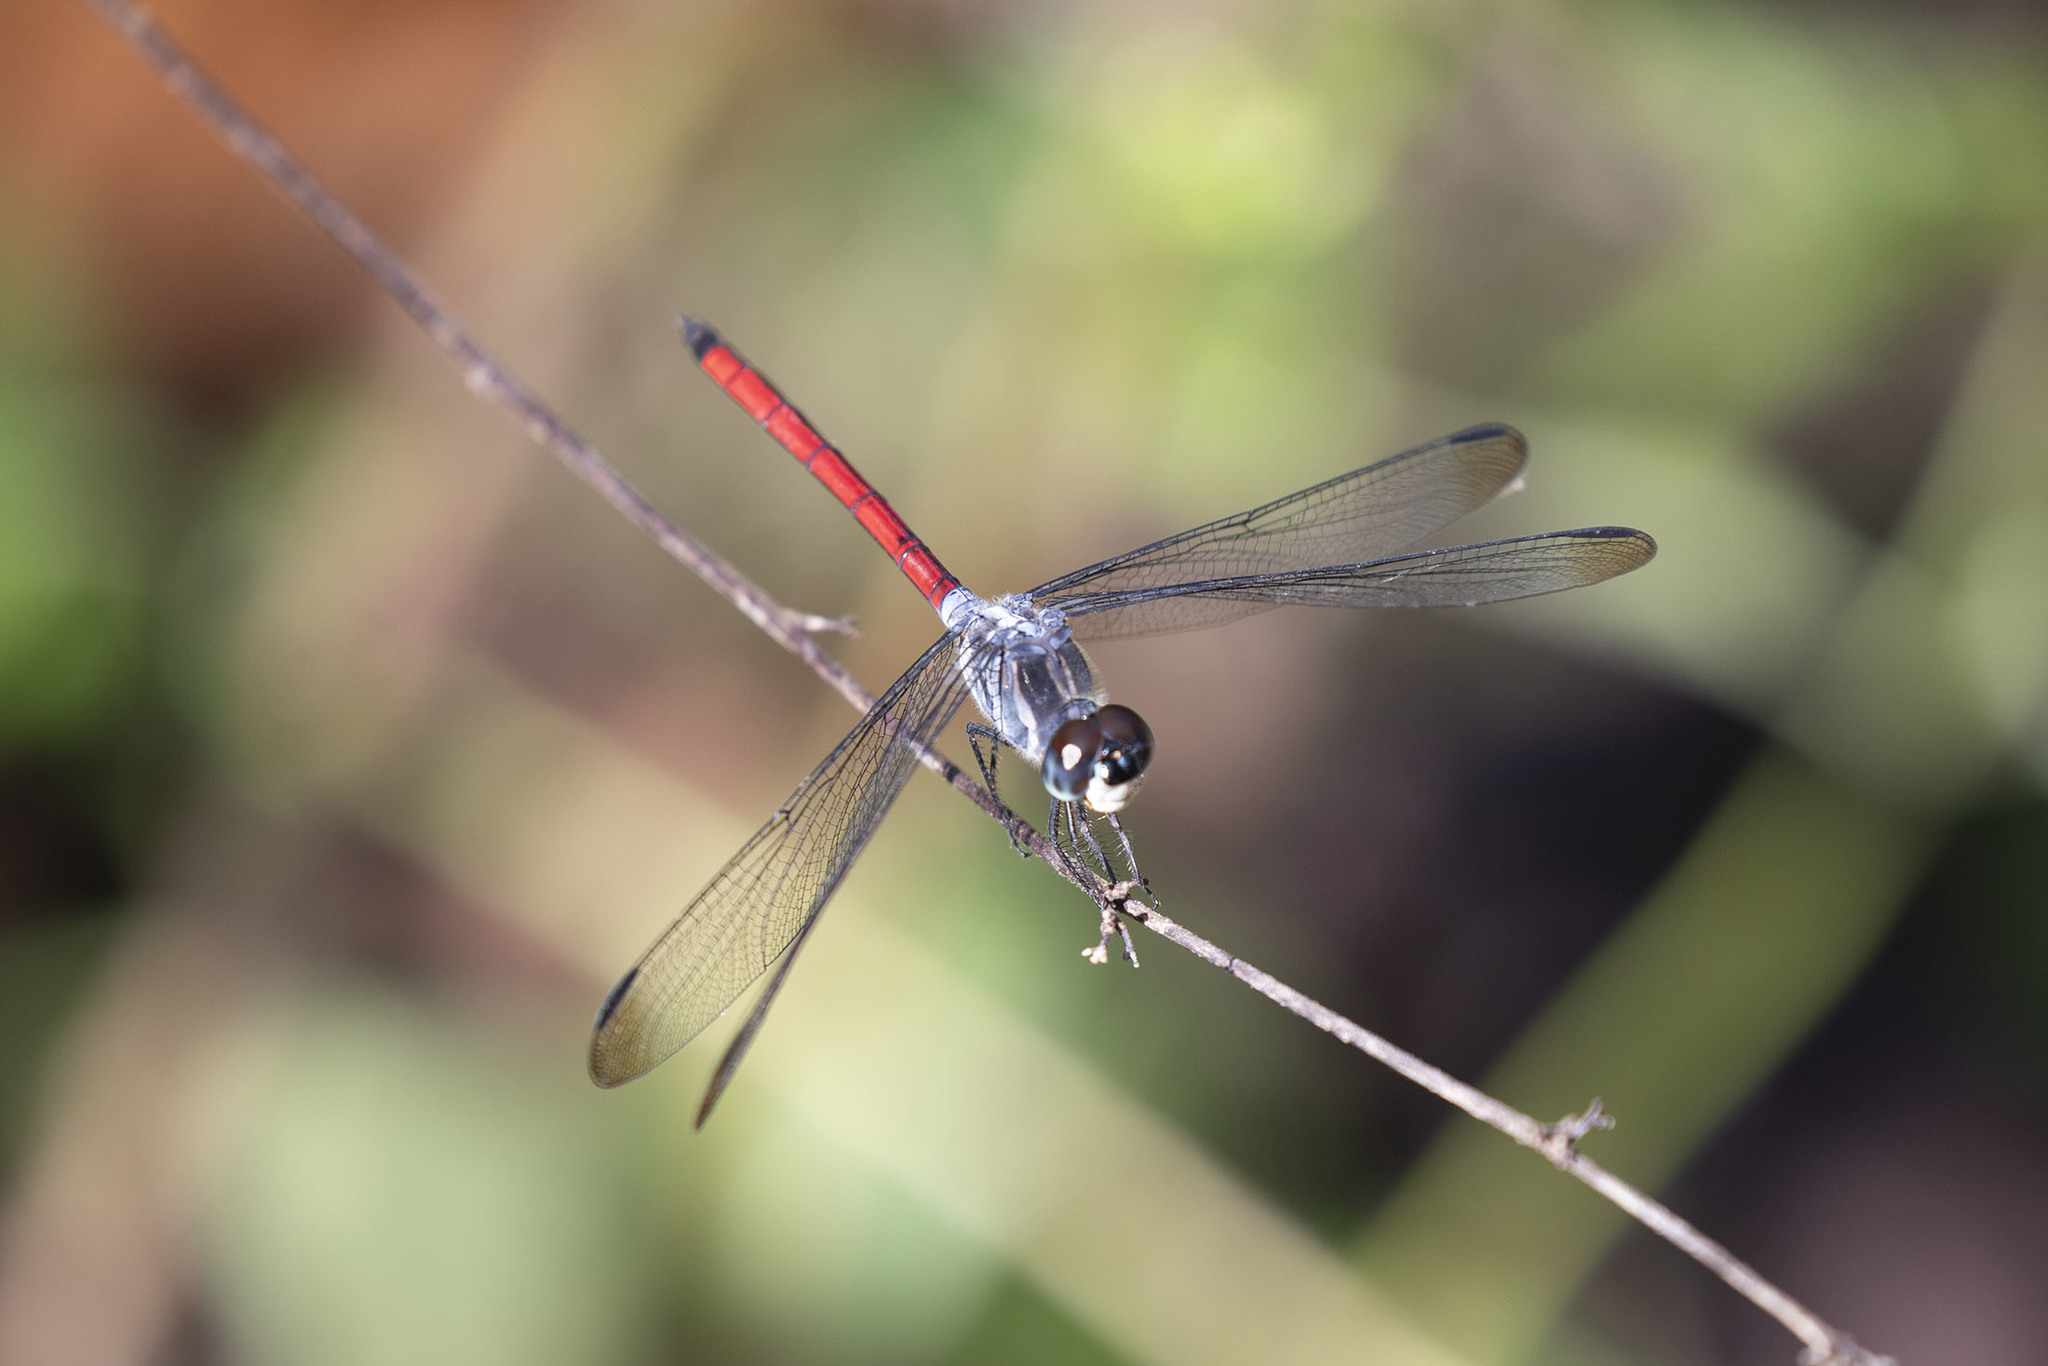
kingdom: Animalia
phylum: Arthropoda
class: Insecta
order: Odonata
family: Libellulidae
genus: Lathrecista
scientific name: Lathrecista asiatica
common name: Scarlet grenadier
